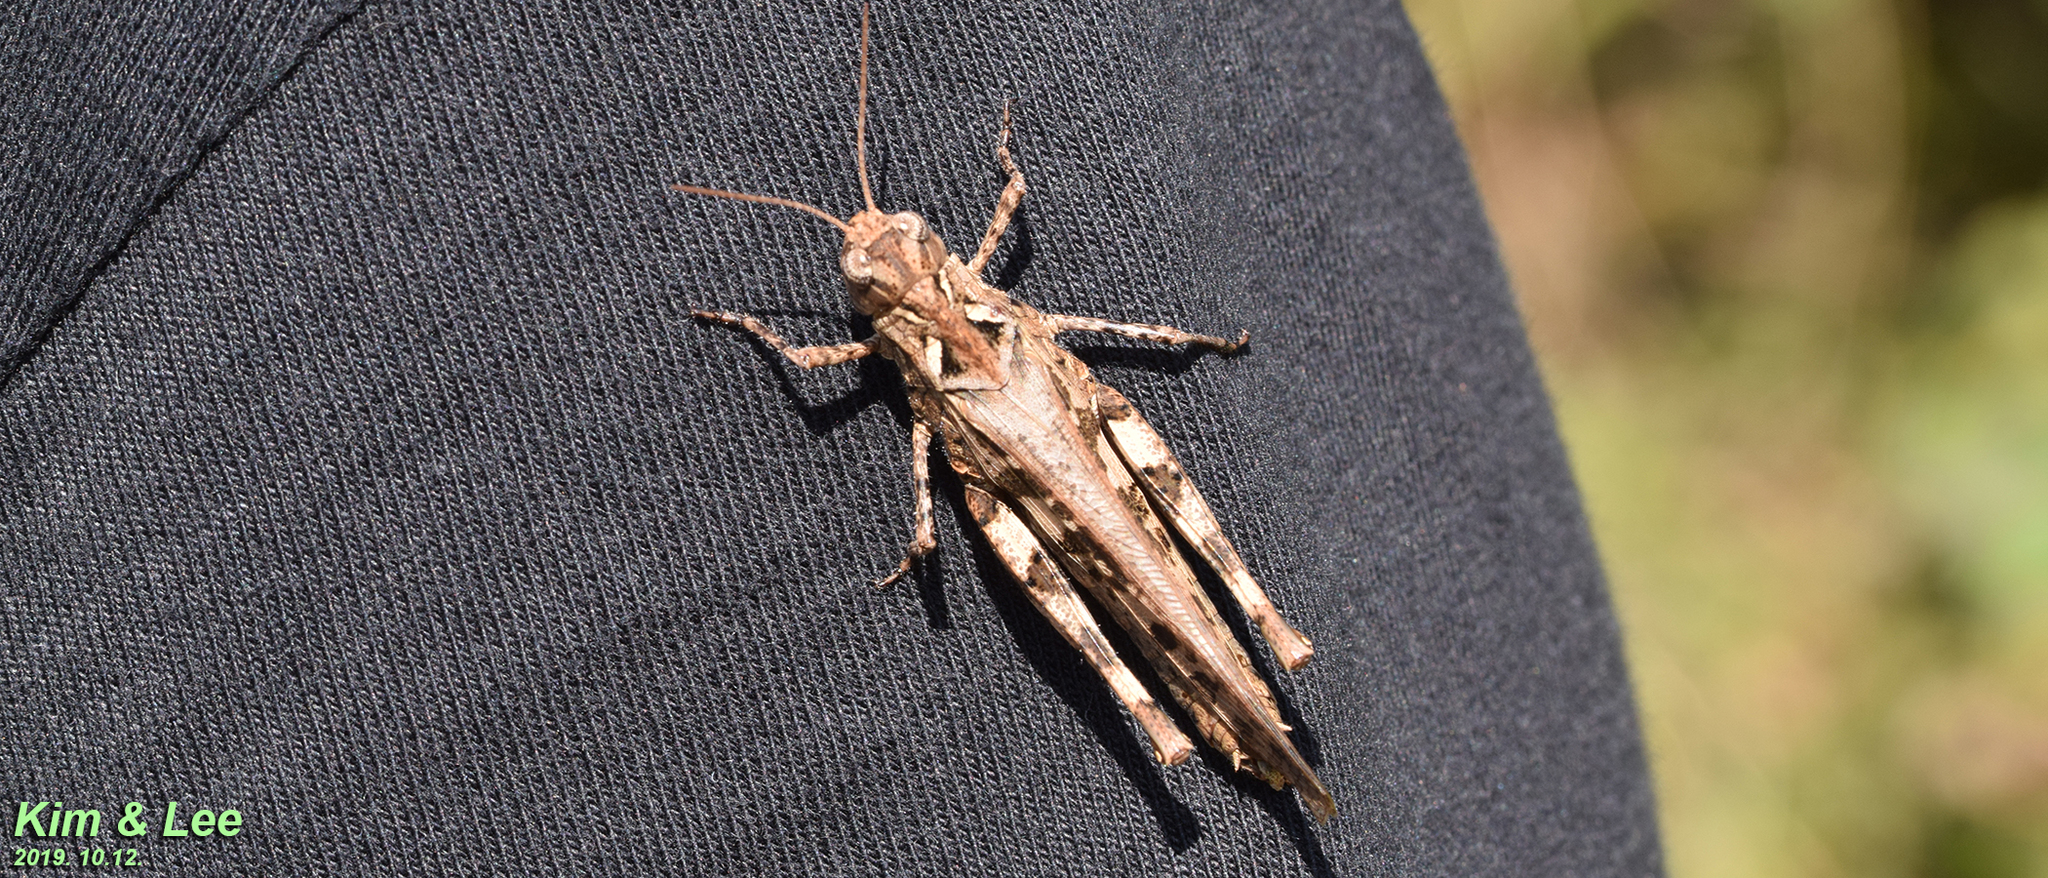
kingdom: Animalia
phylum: Arthropoda
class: Insecta
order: Orthoptera
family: Acrididae
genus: Oedaleus
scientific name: Oedaleus infernalis
